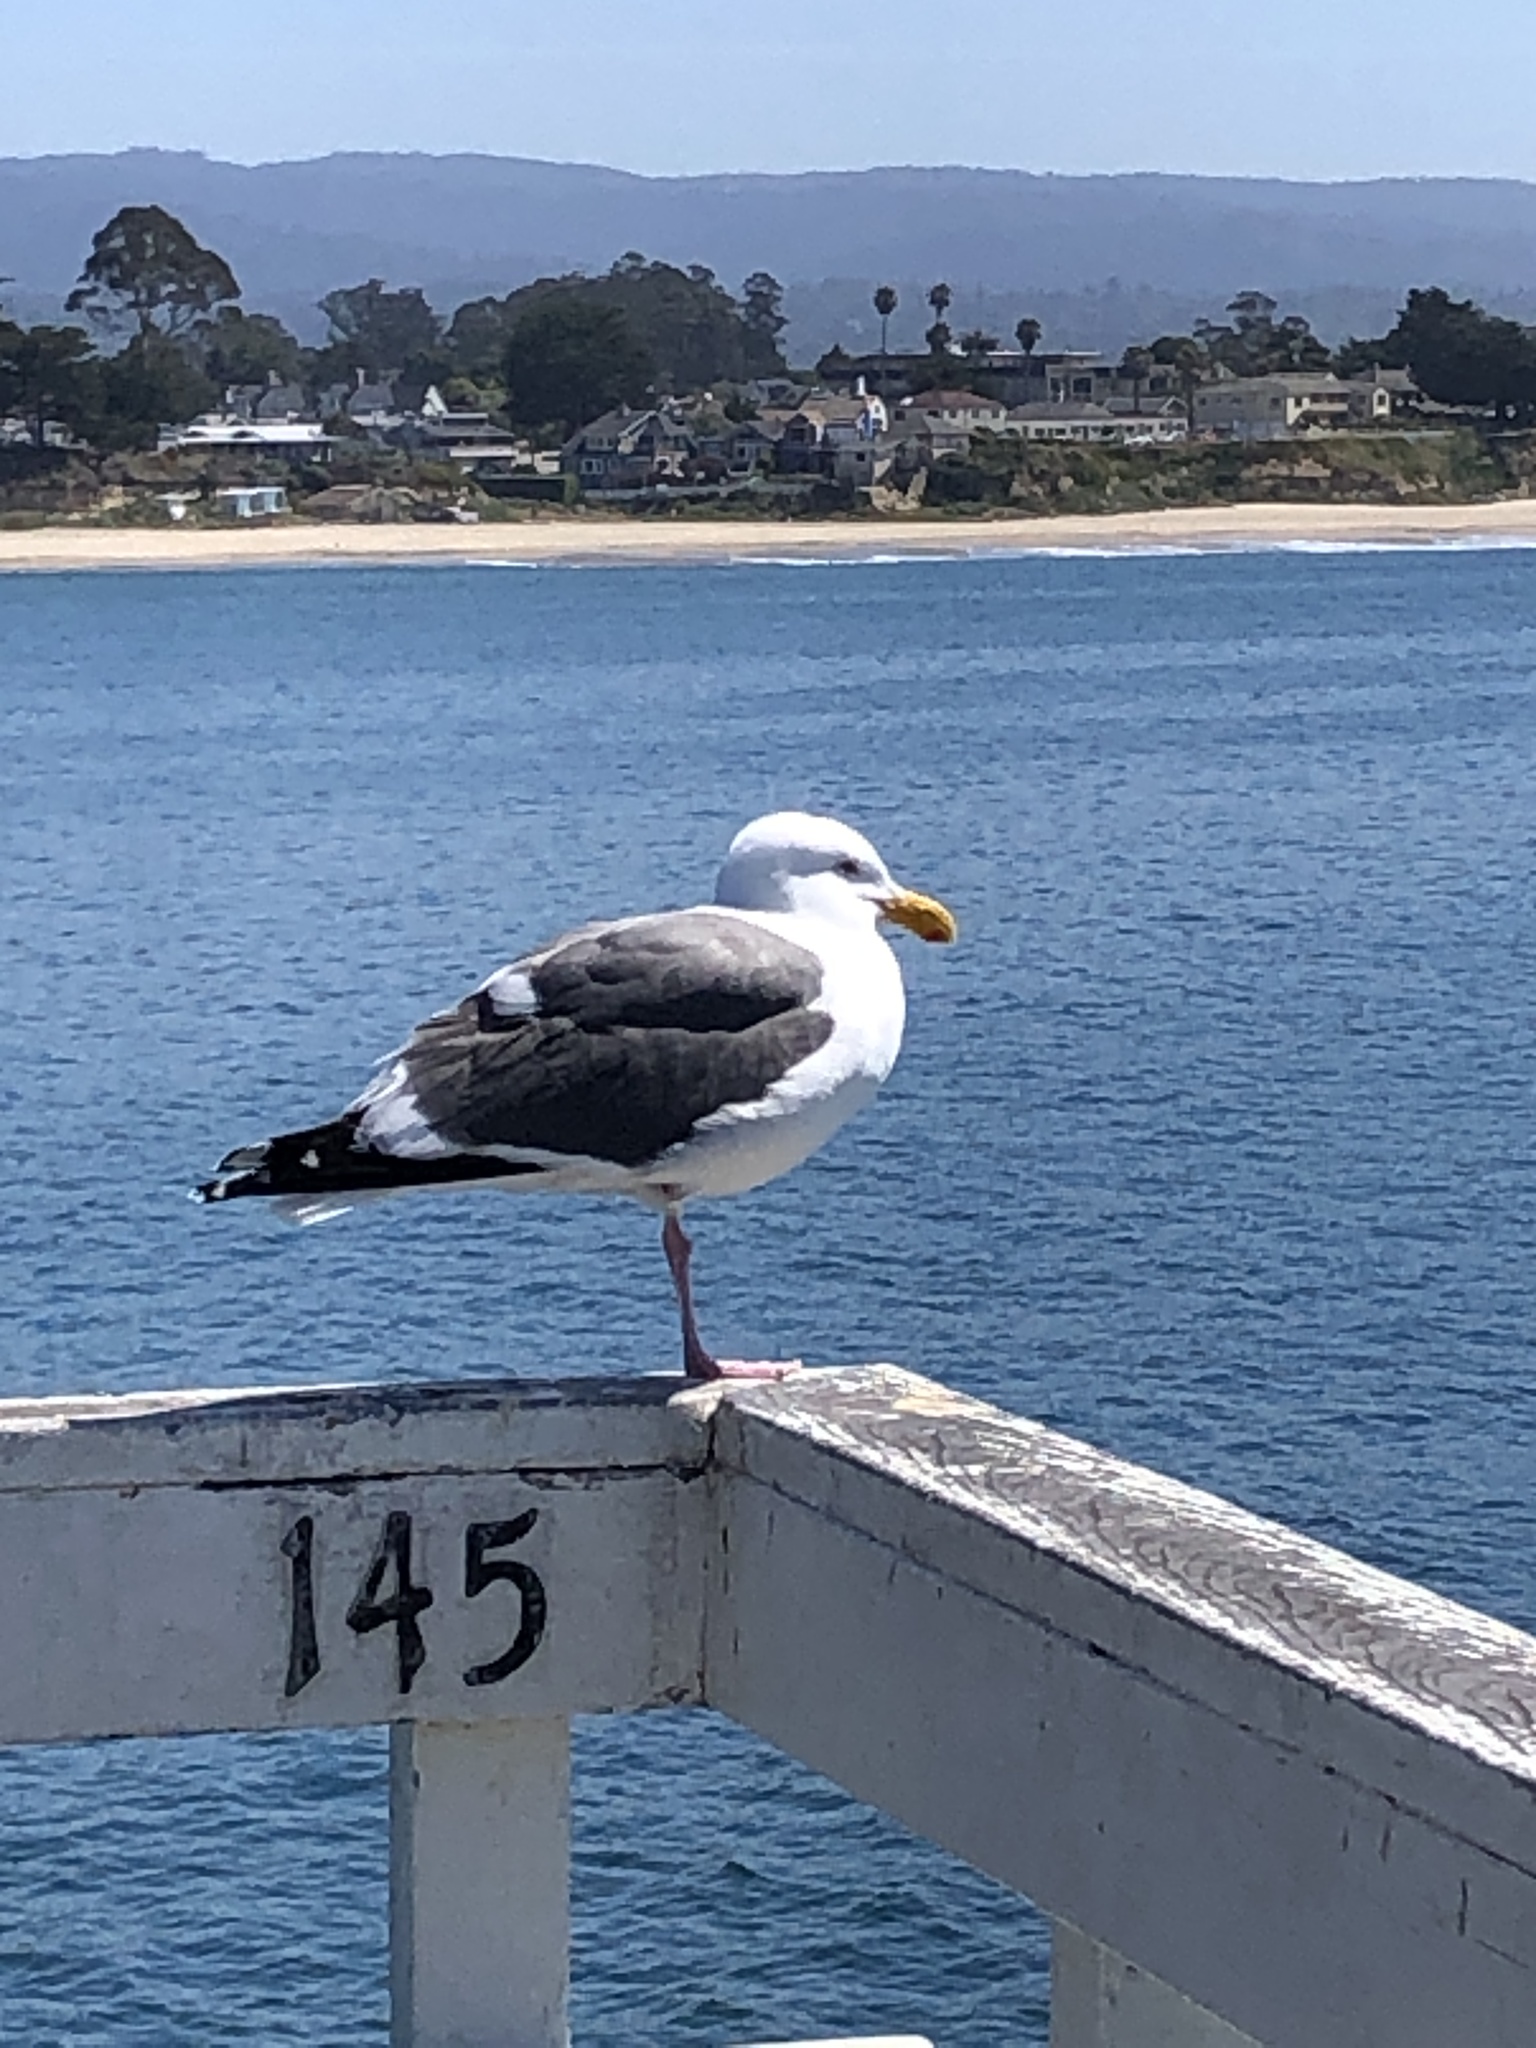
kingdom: Animalia
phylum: Chordata
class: Aves
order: Charadriiformes
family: Laridae
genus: Larus
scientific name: Larus occidentalis
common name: Western gull
